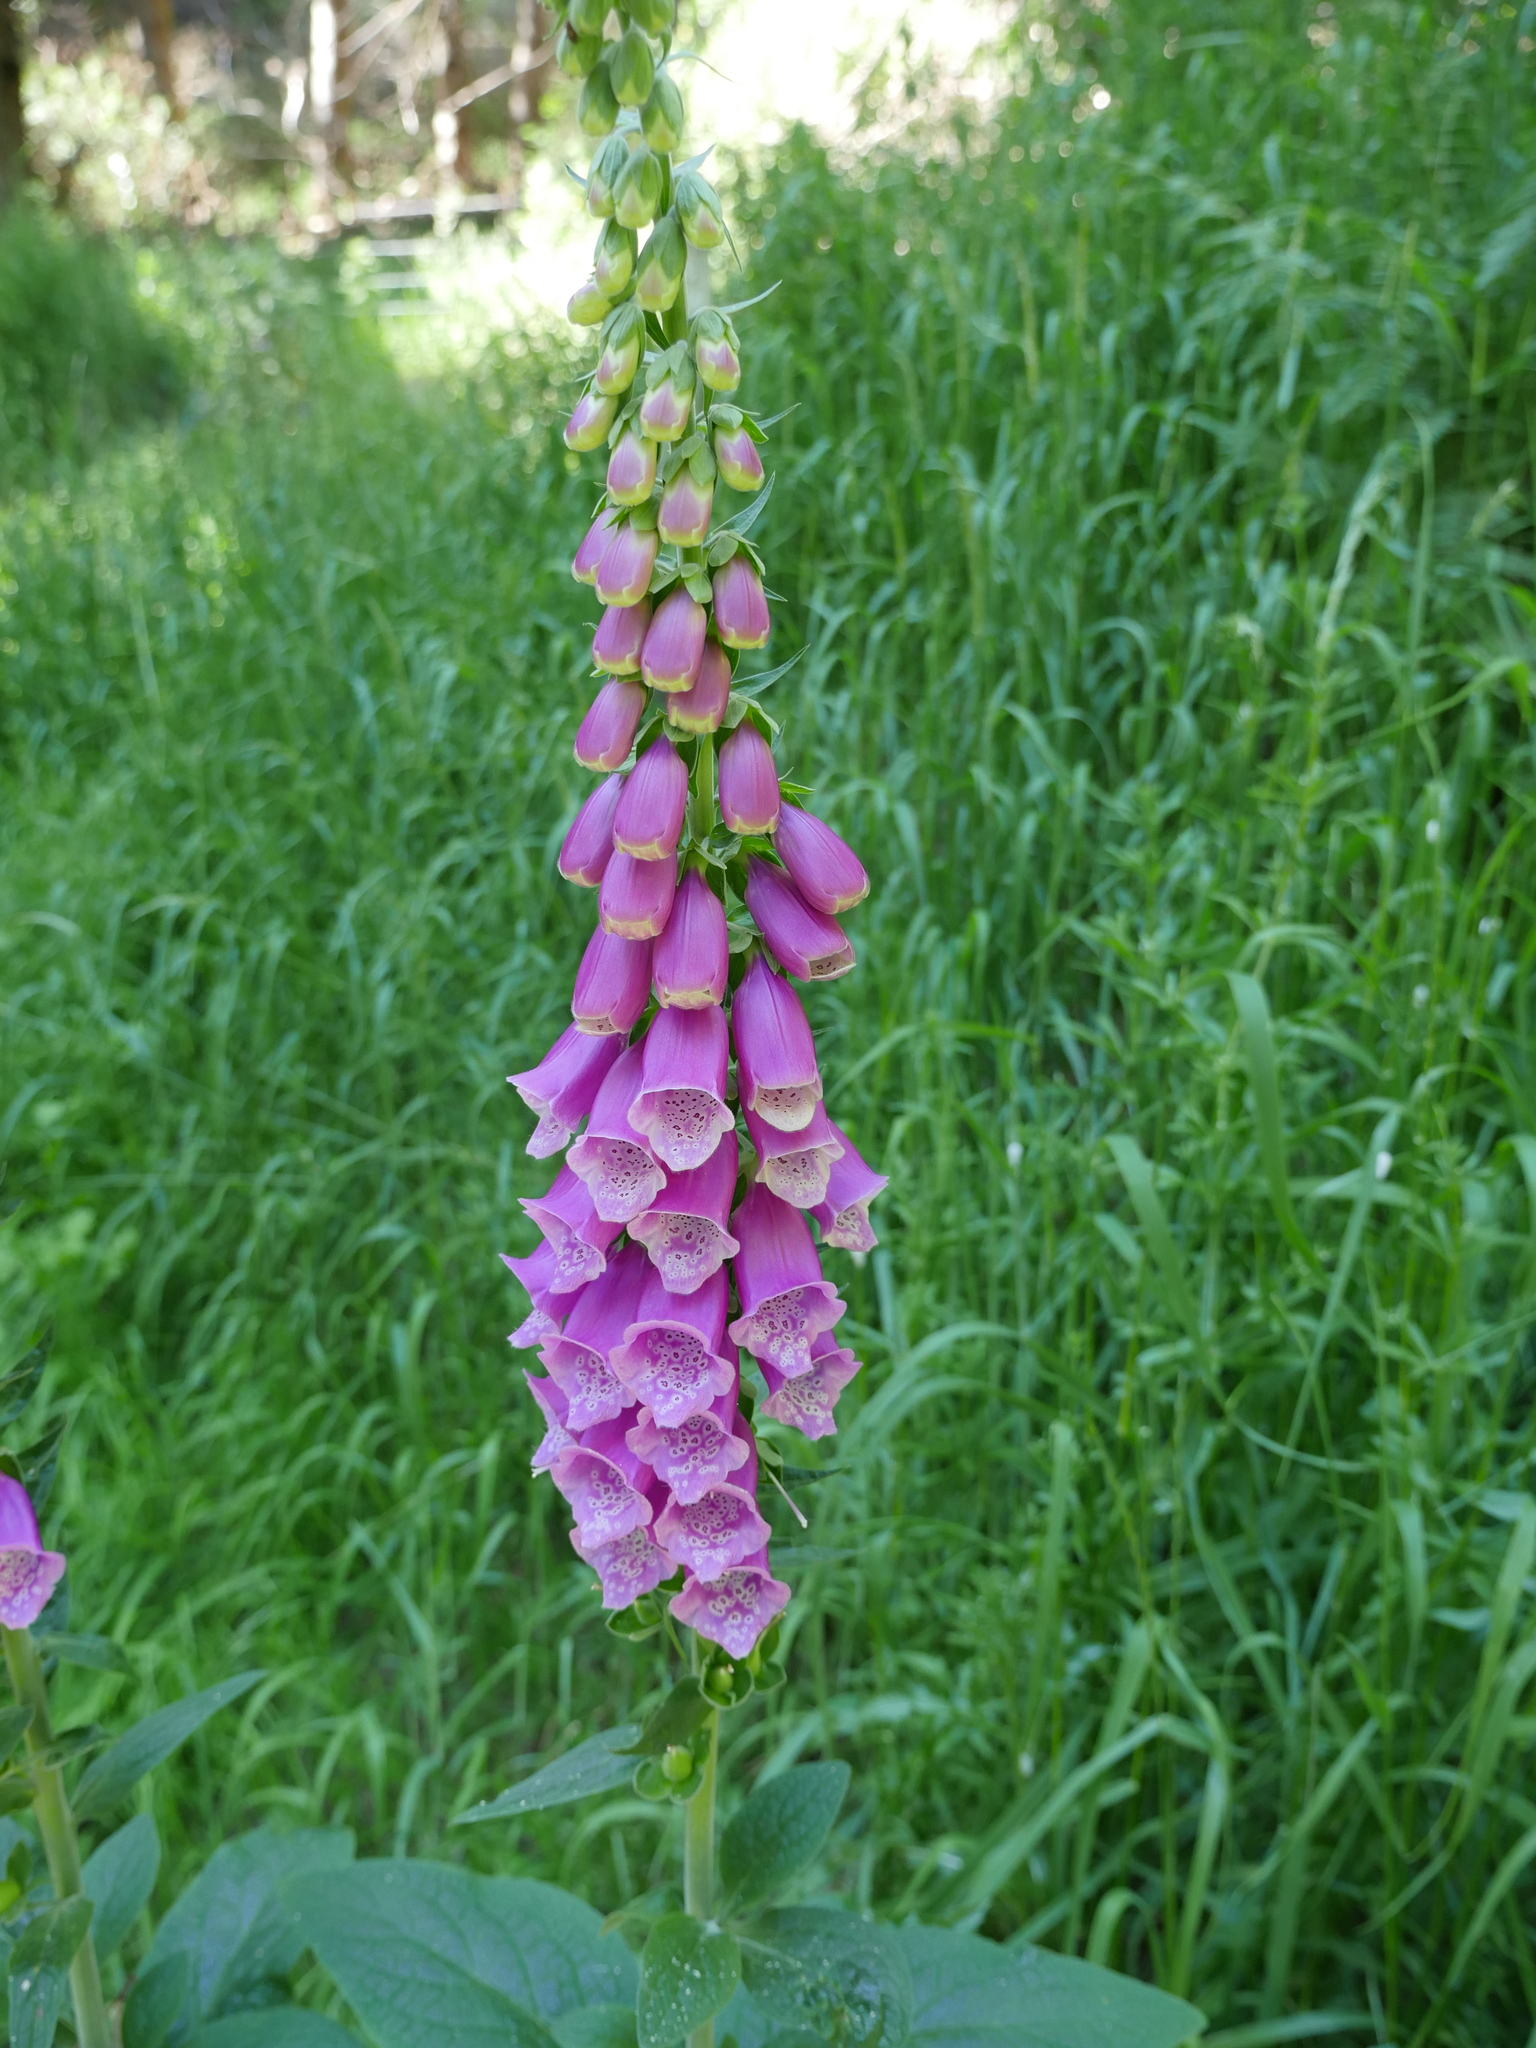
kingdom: Plantae
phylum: Tracheophyta
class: Magnoliopsida
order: Lamiales
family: Plantaginaceae
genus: Digitalis
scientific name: Digitalis purpurea
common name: Foxglove
